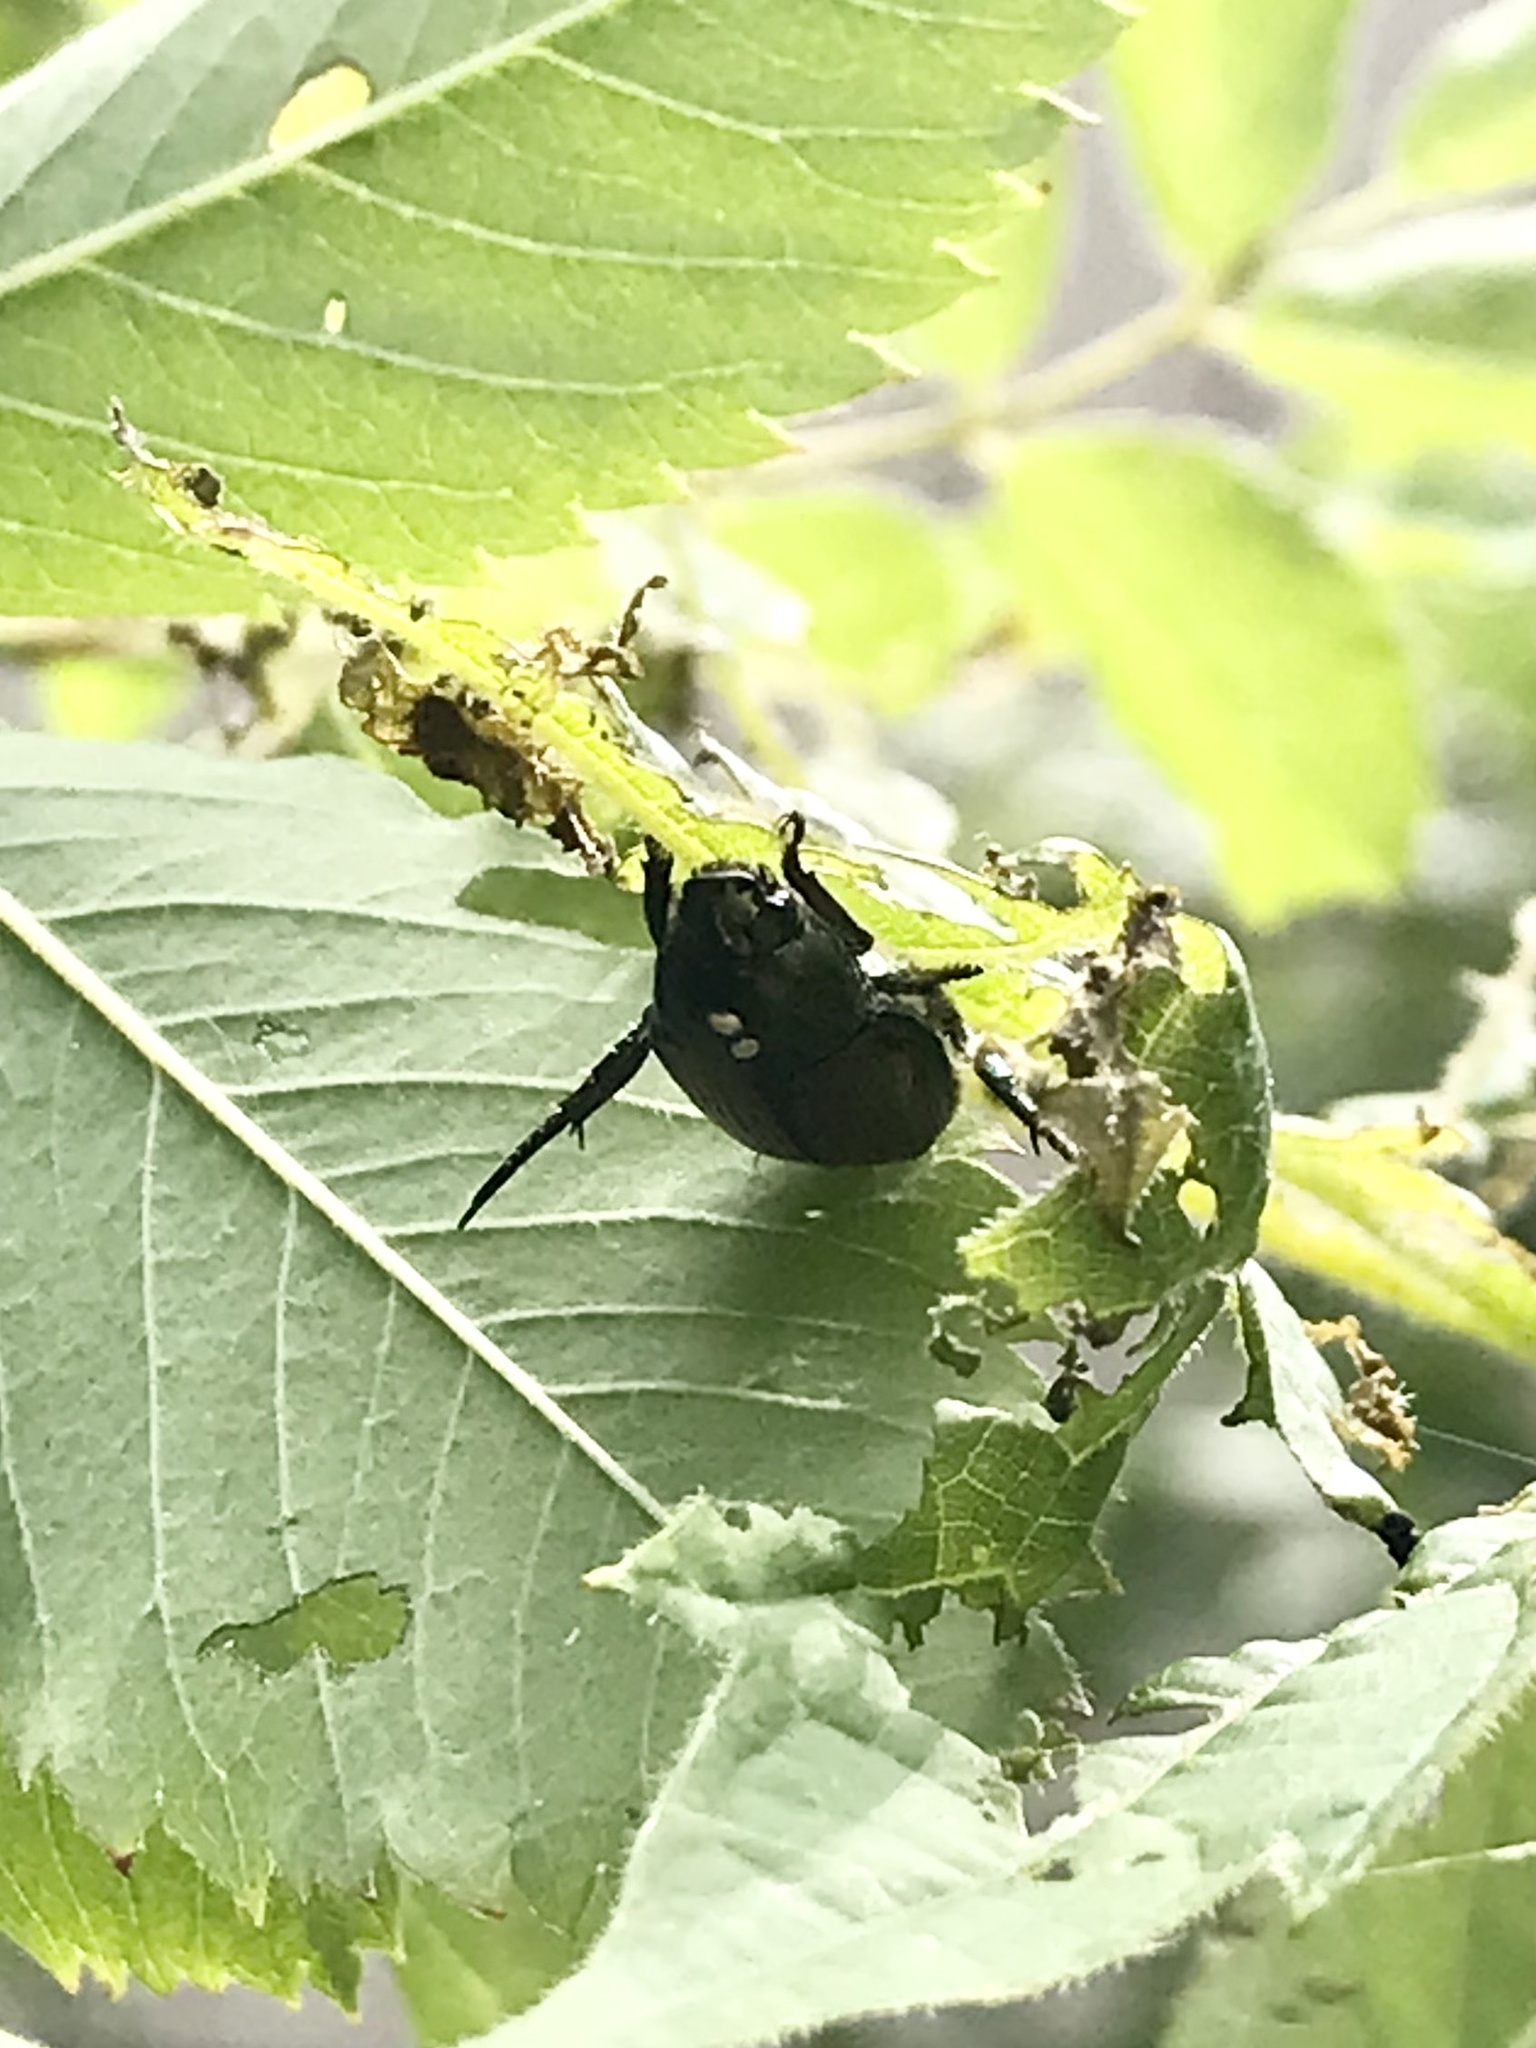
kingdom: Animalia
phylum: Arthropoda
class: Insecta
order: Diptera
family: Tachinidae
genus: Istocheta
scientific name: Istocheta aldrichi
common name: Parasitic wasp
